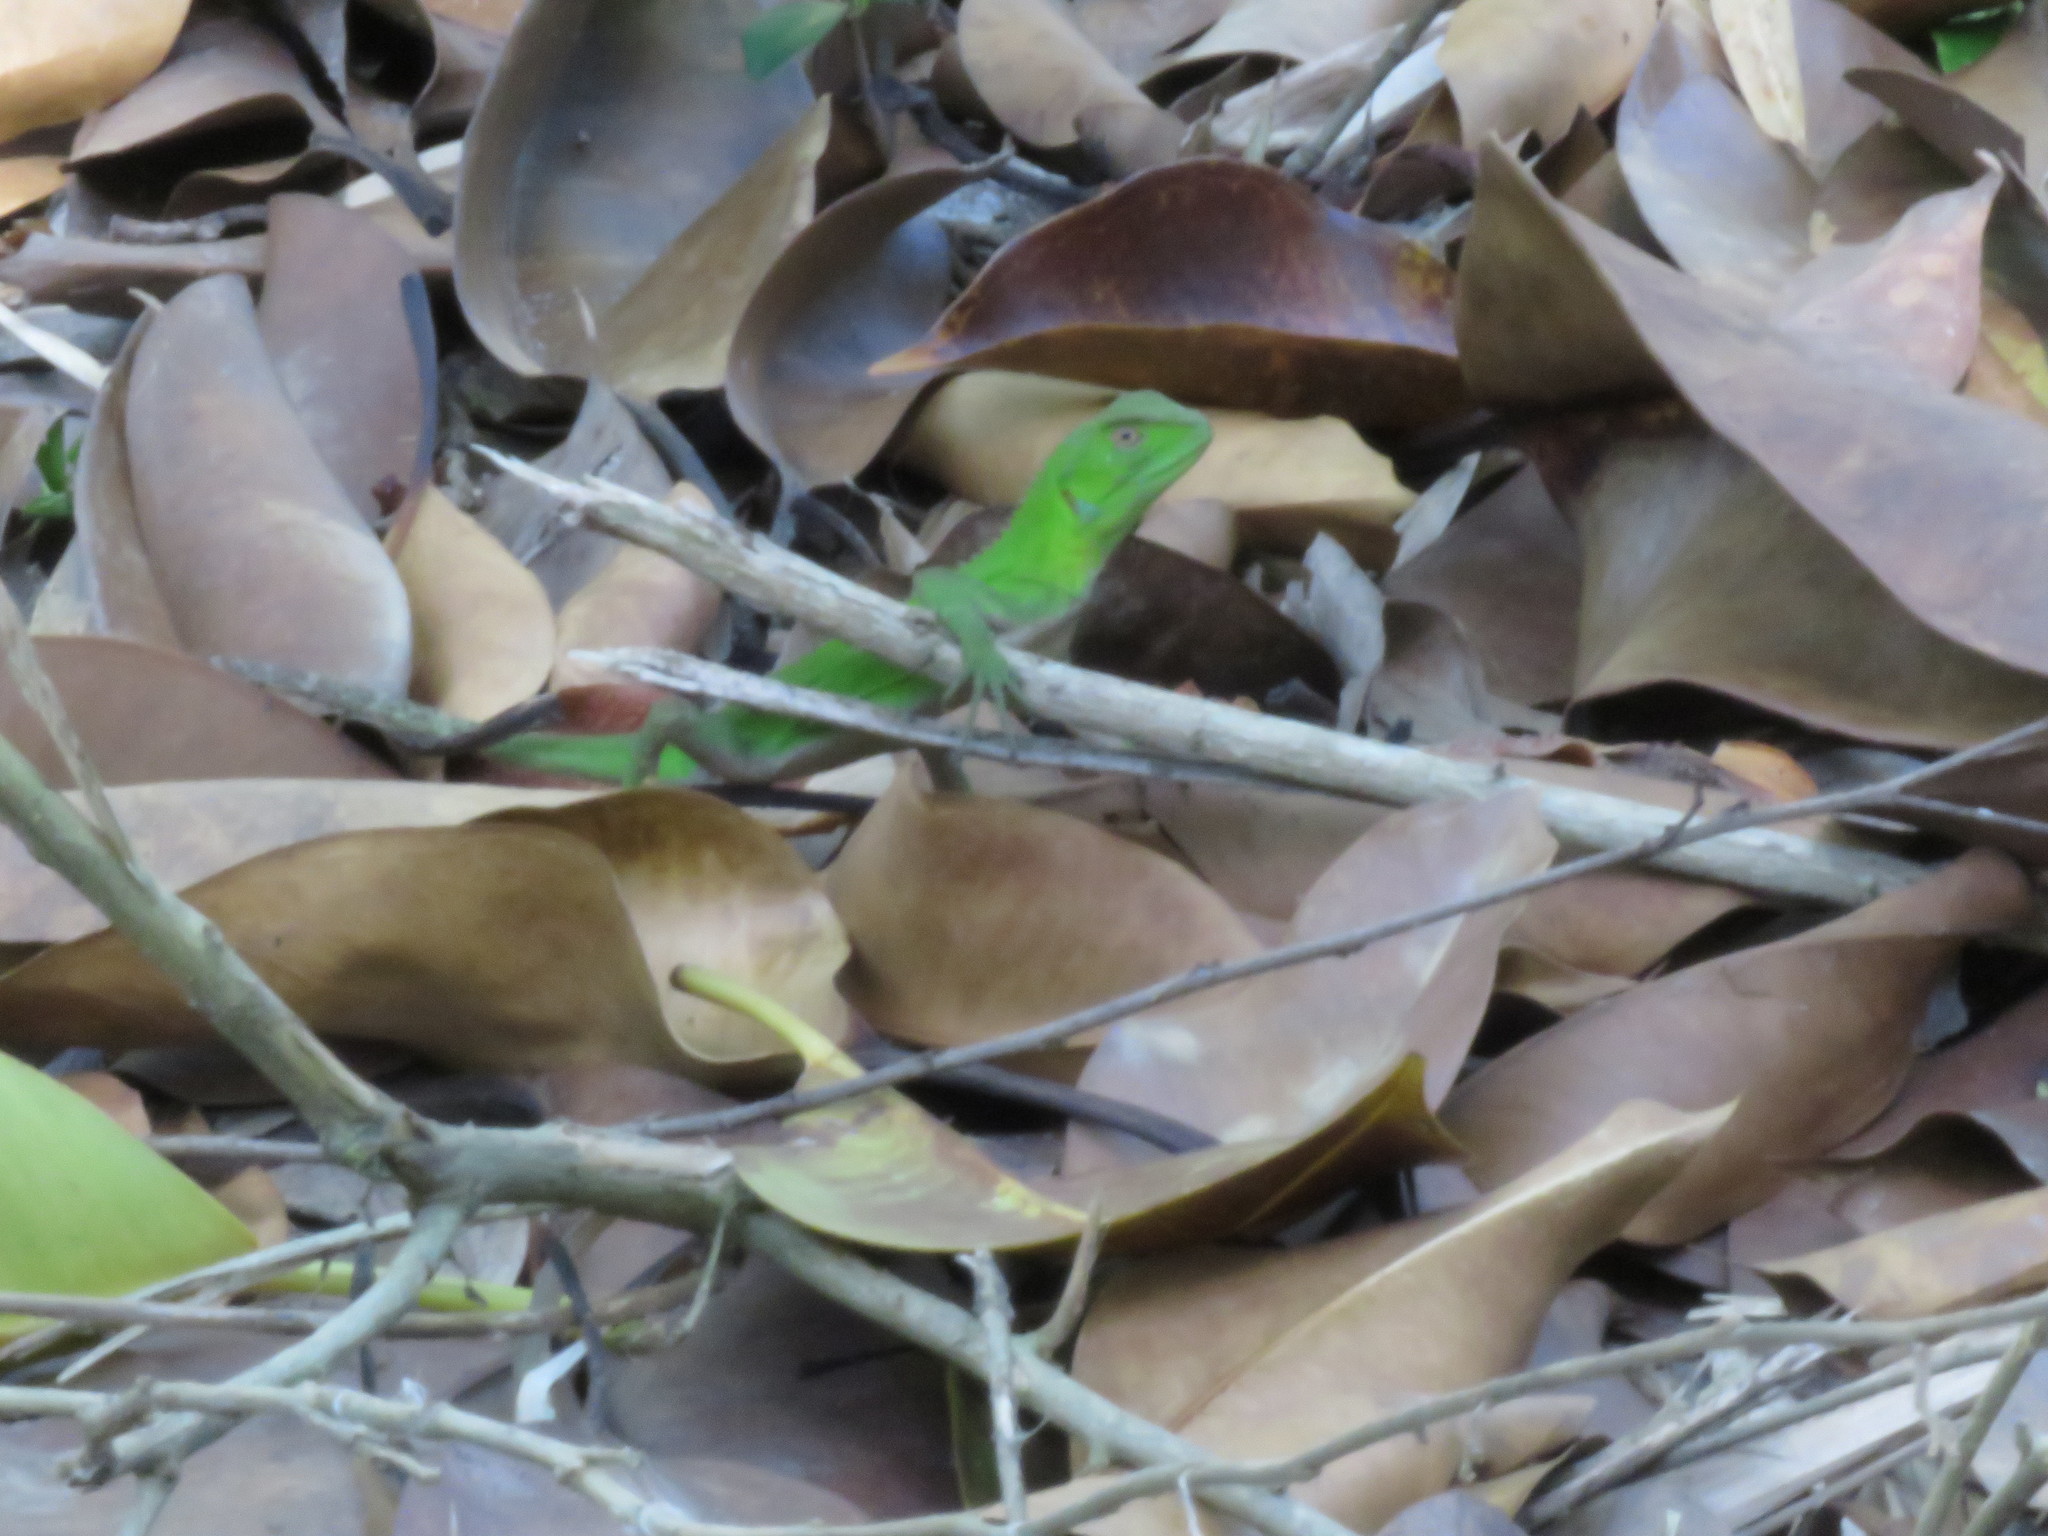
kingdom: Animalia
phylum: Chordata
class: Squamata
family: Leiosauridae
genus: Enyalius
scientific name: Enyalius iheringii
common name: Ihering's fathead anole
